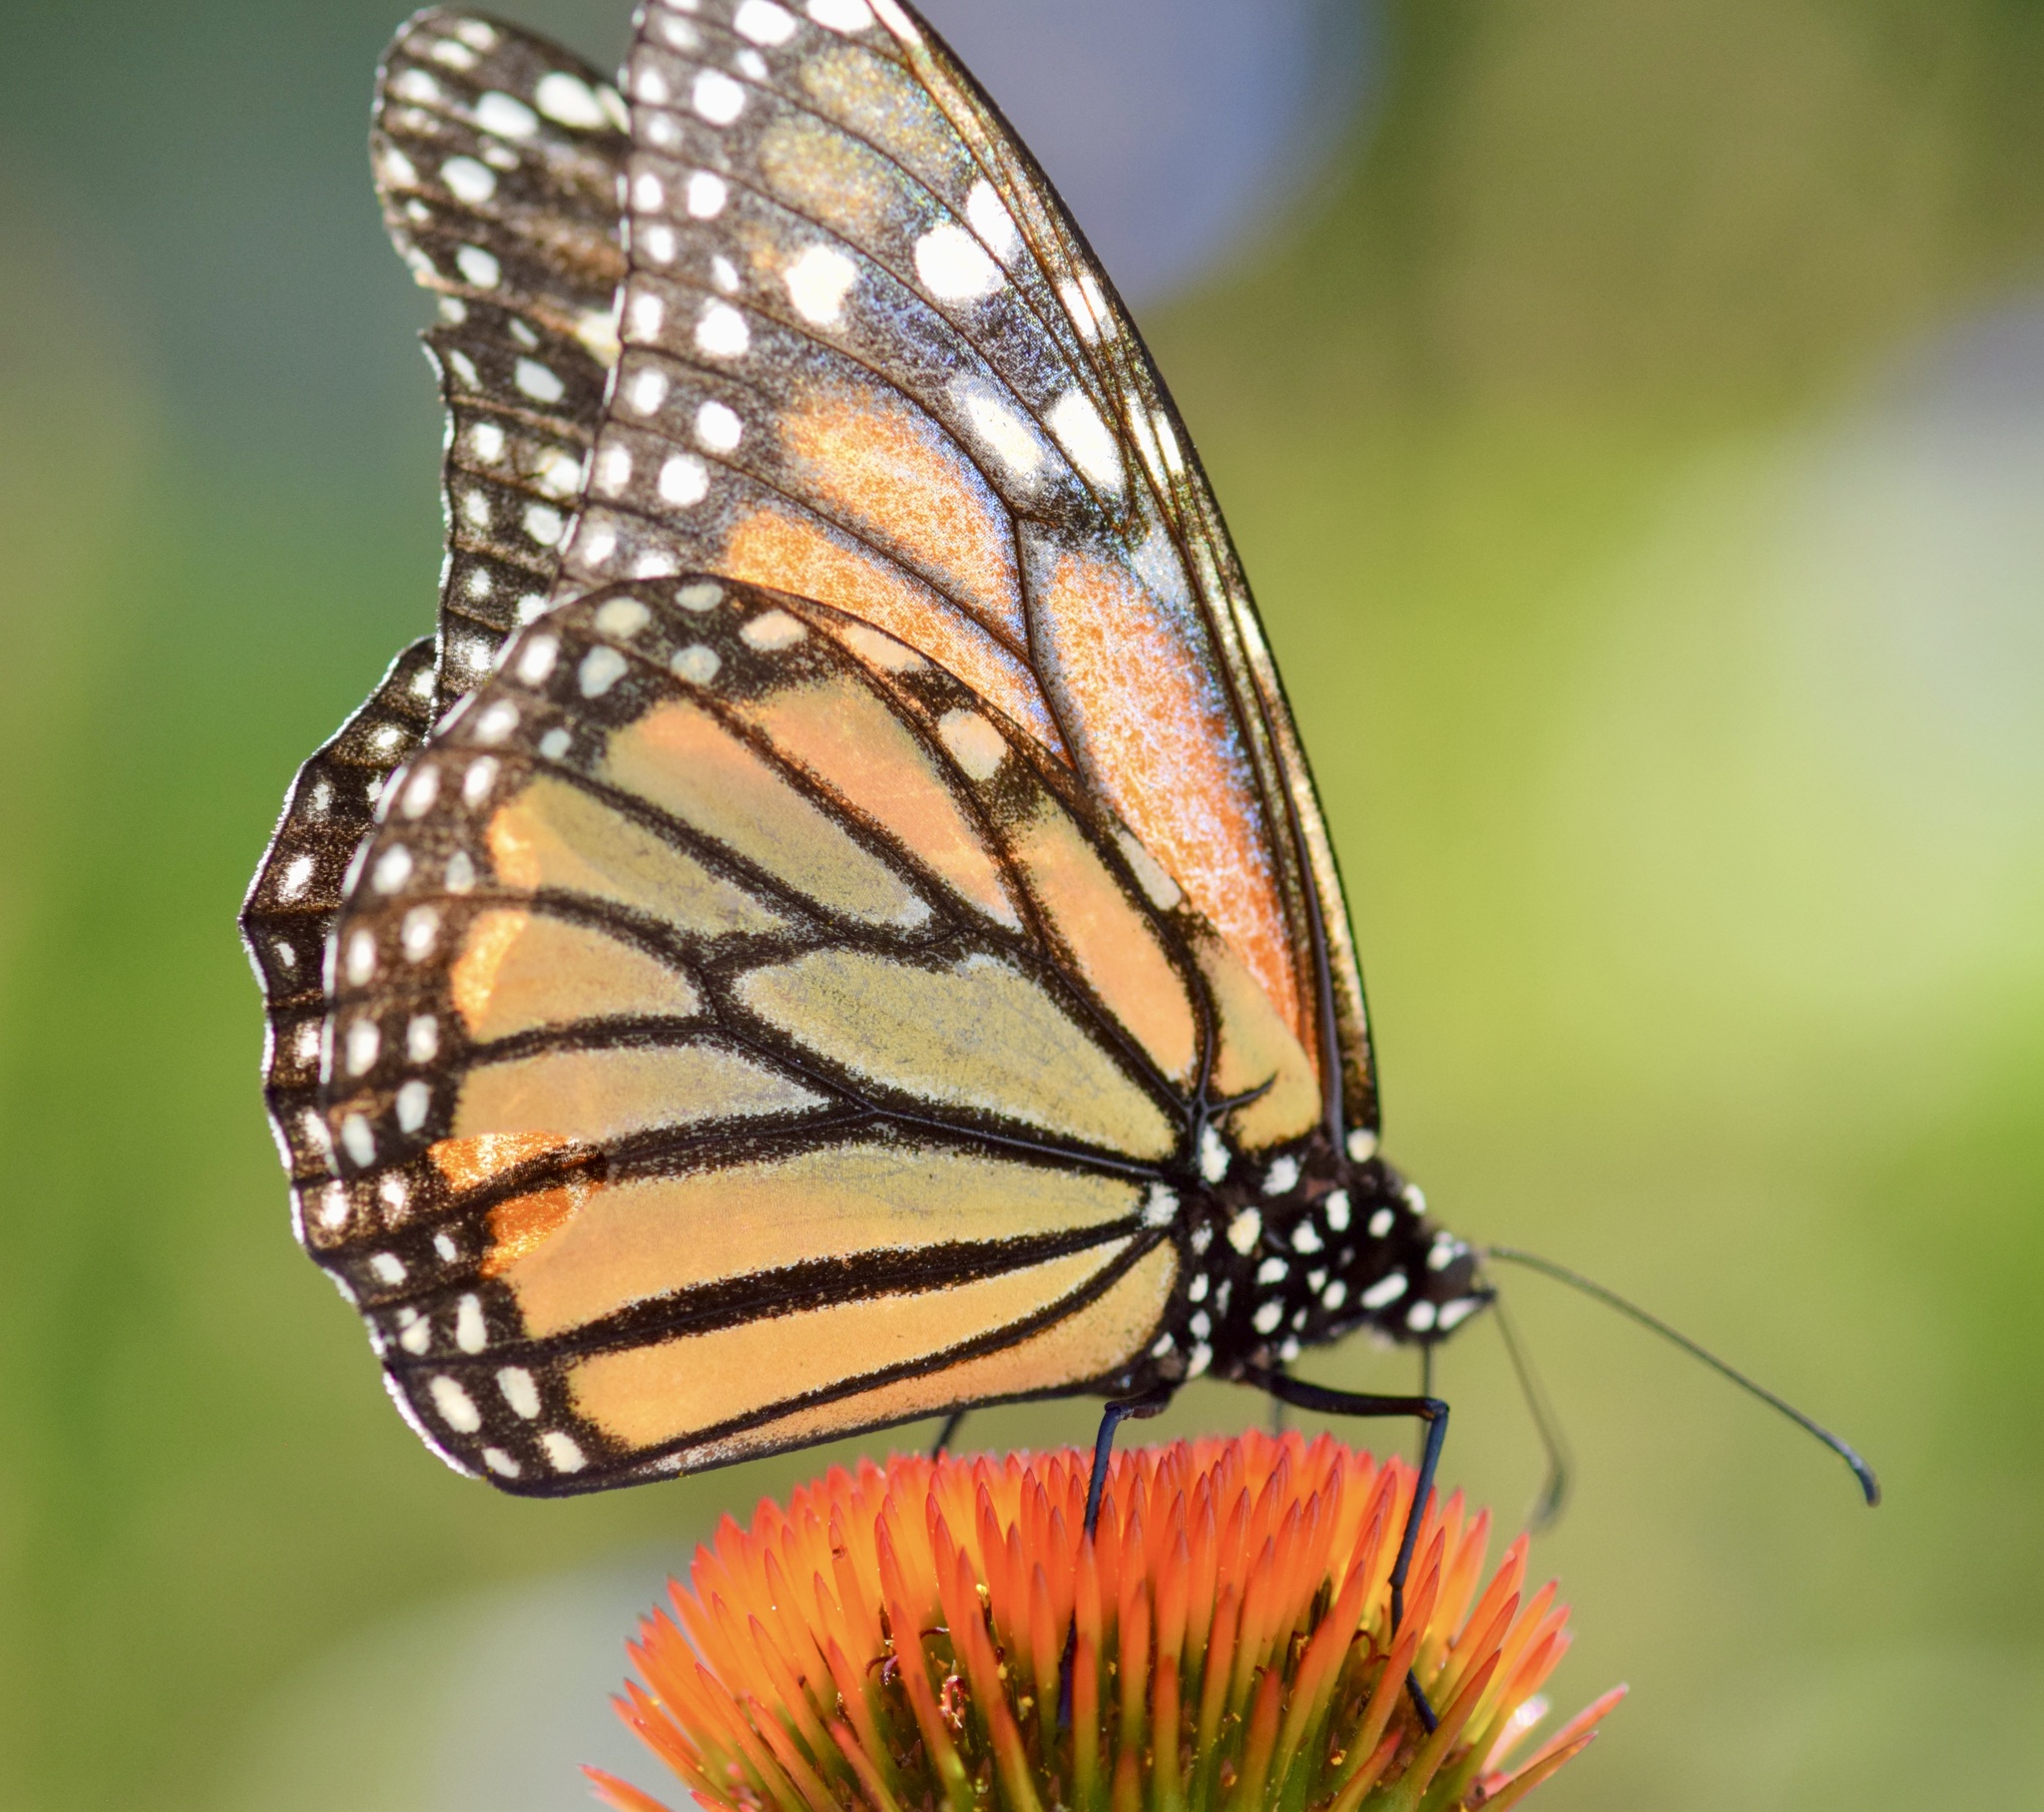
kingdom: Animalia
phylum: Arthropoda
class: Insecta
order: Lepidoptera
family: Nymphalidae
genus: Danaus
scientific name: Danaus plexippus
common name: Monarch
